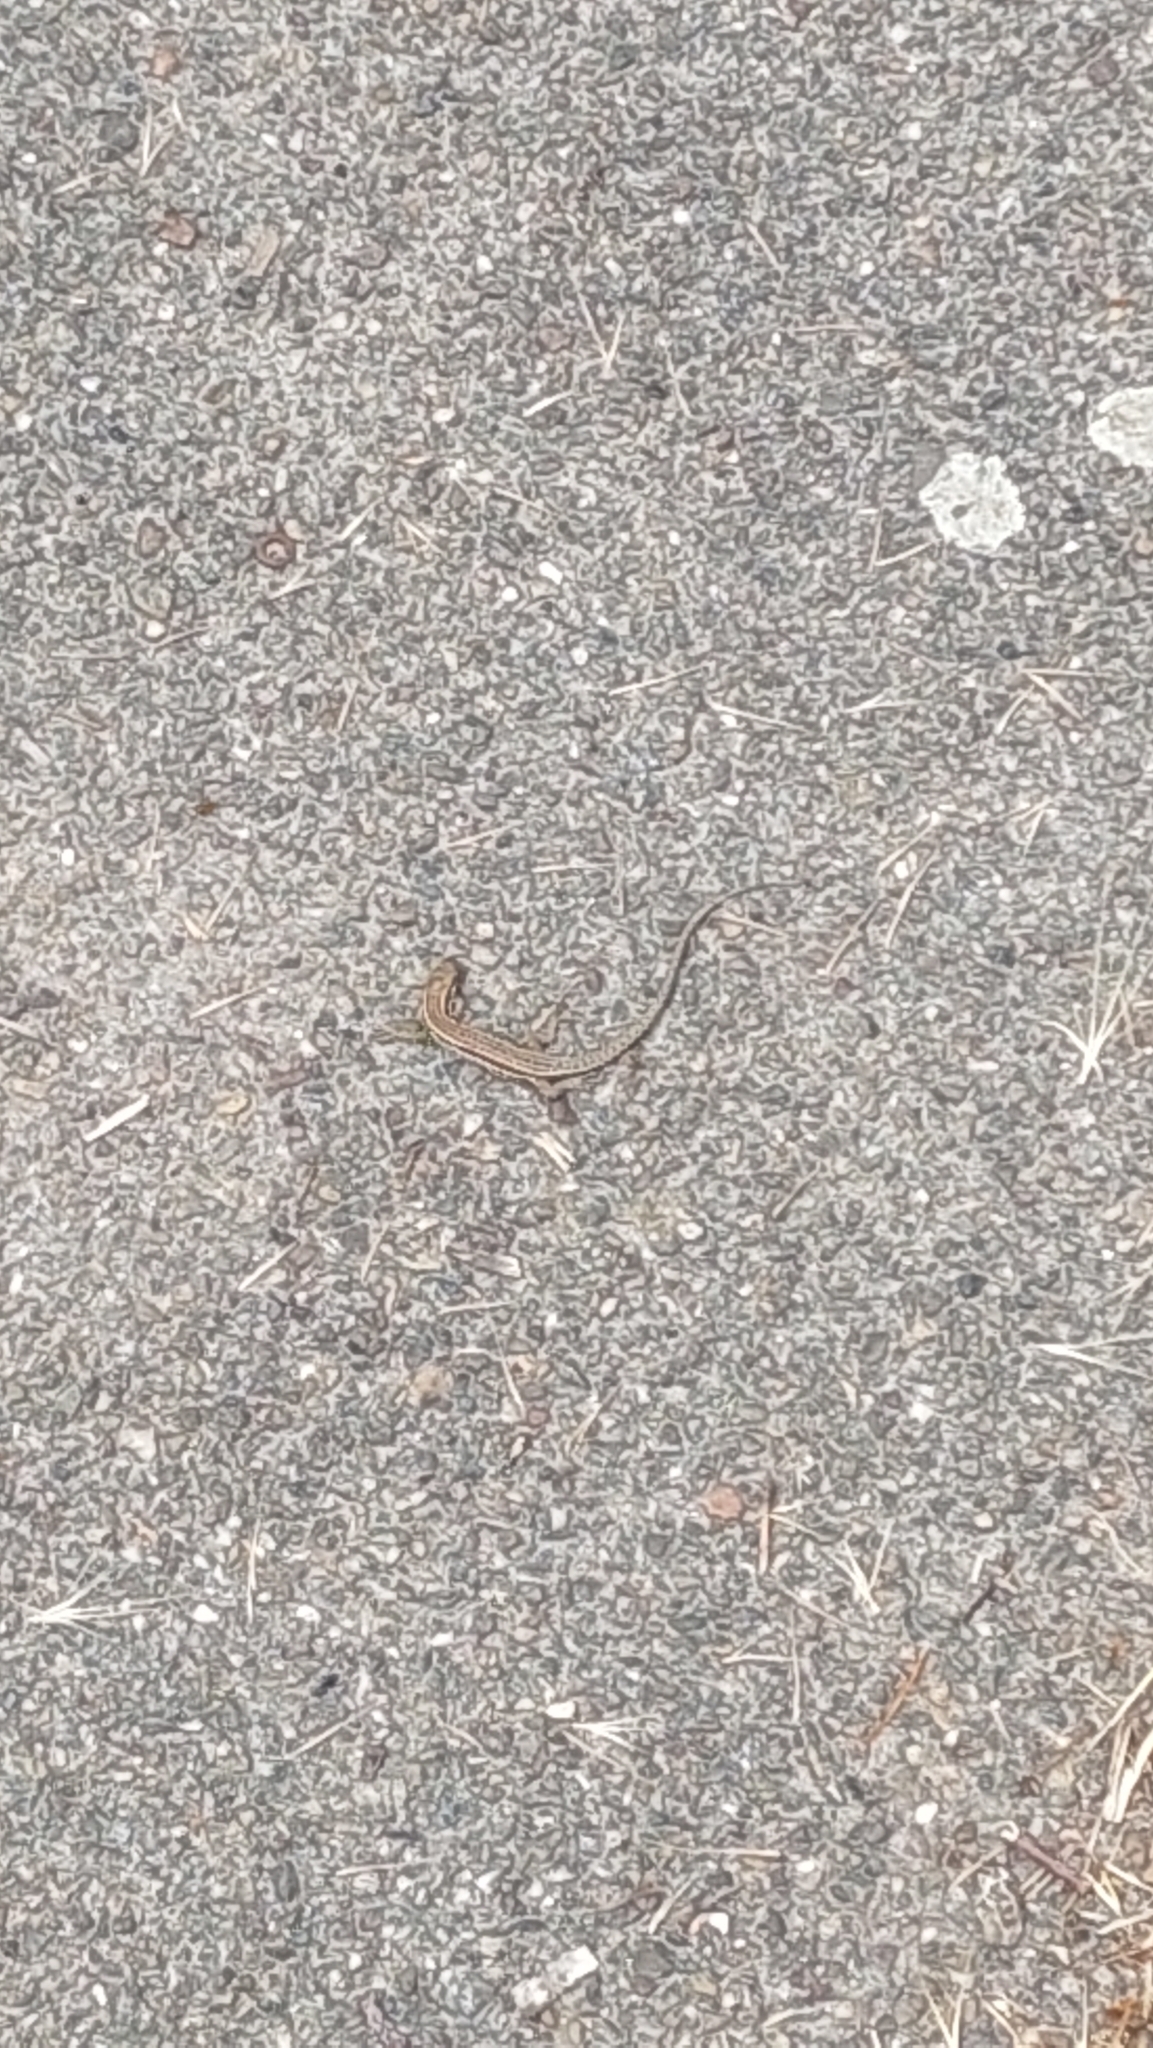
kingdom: Animalia
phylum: Chordata
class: Squamata
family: Lacertidae
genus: Podarcis
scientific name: Podarcis muralis
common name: Common wall lizard
